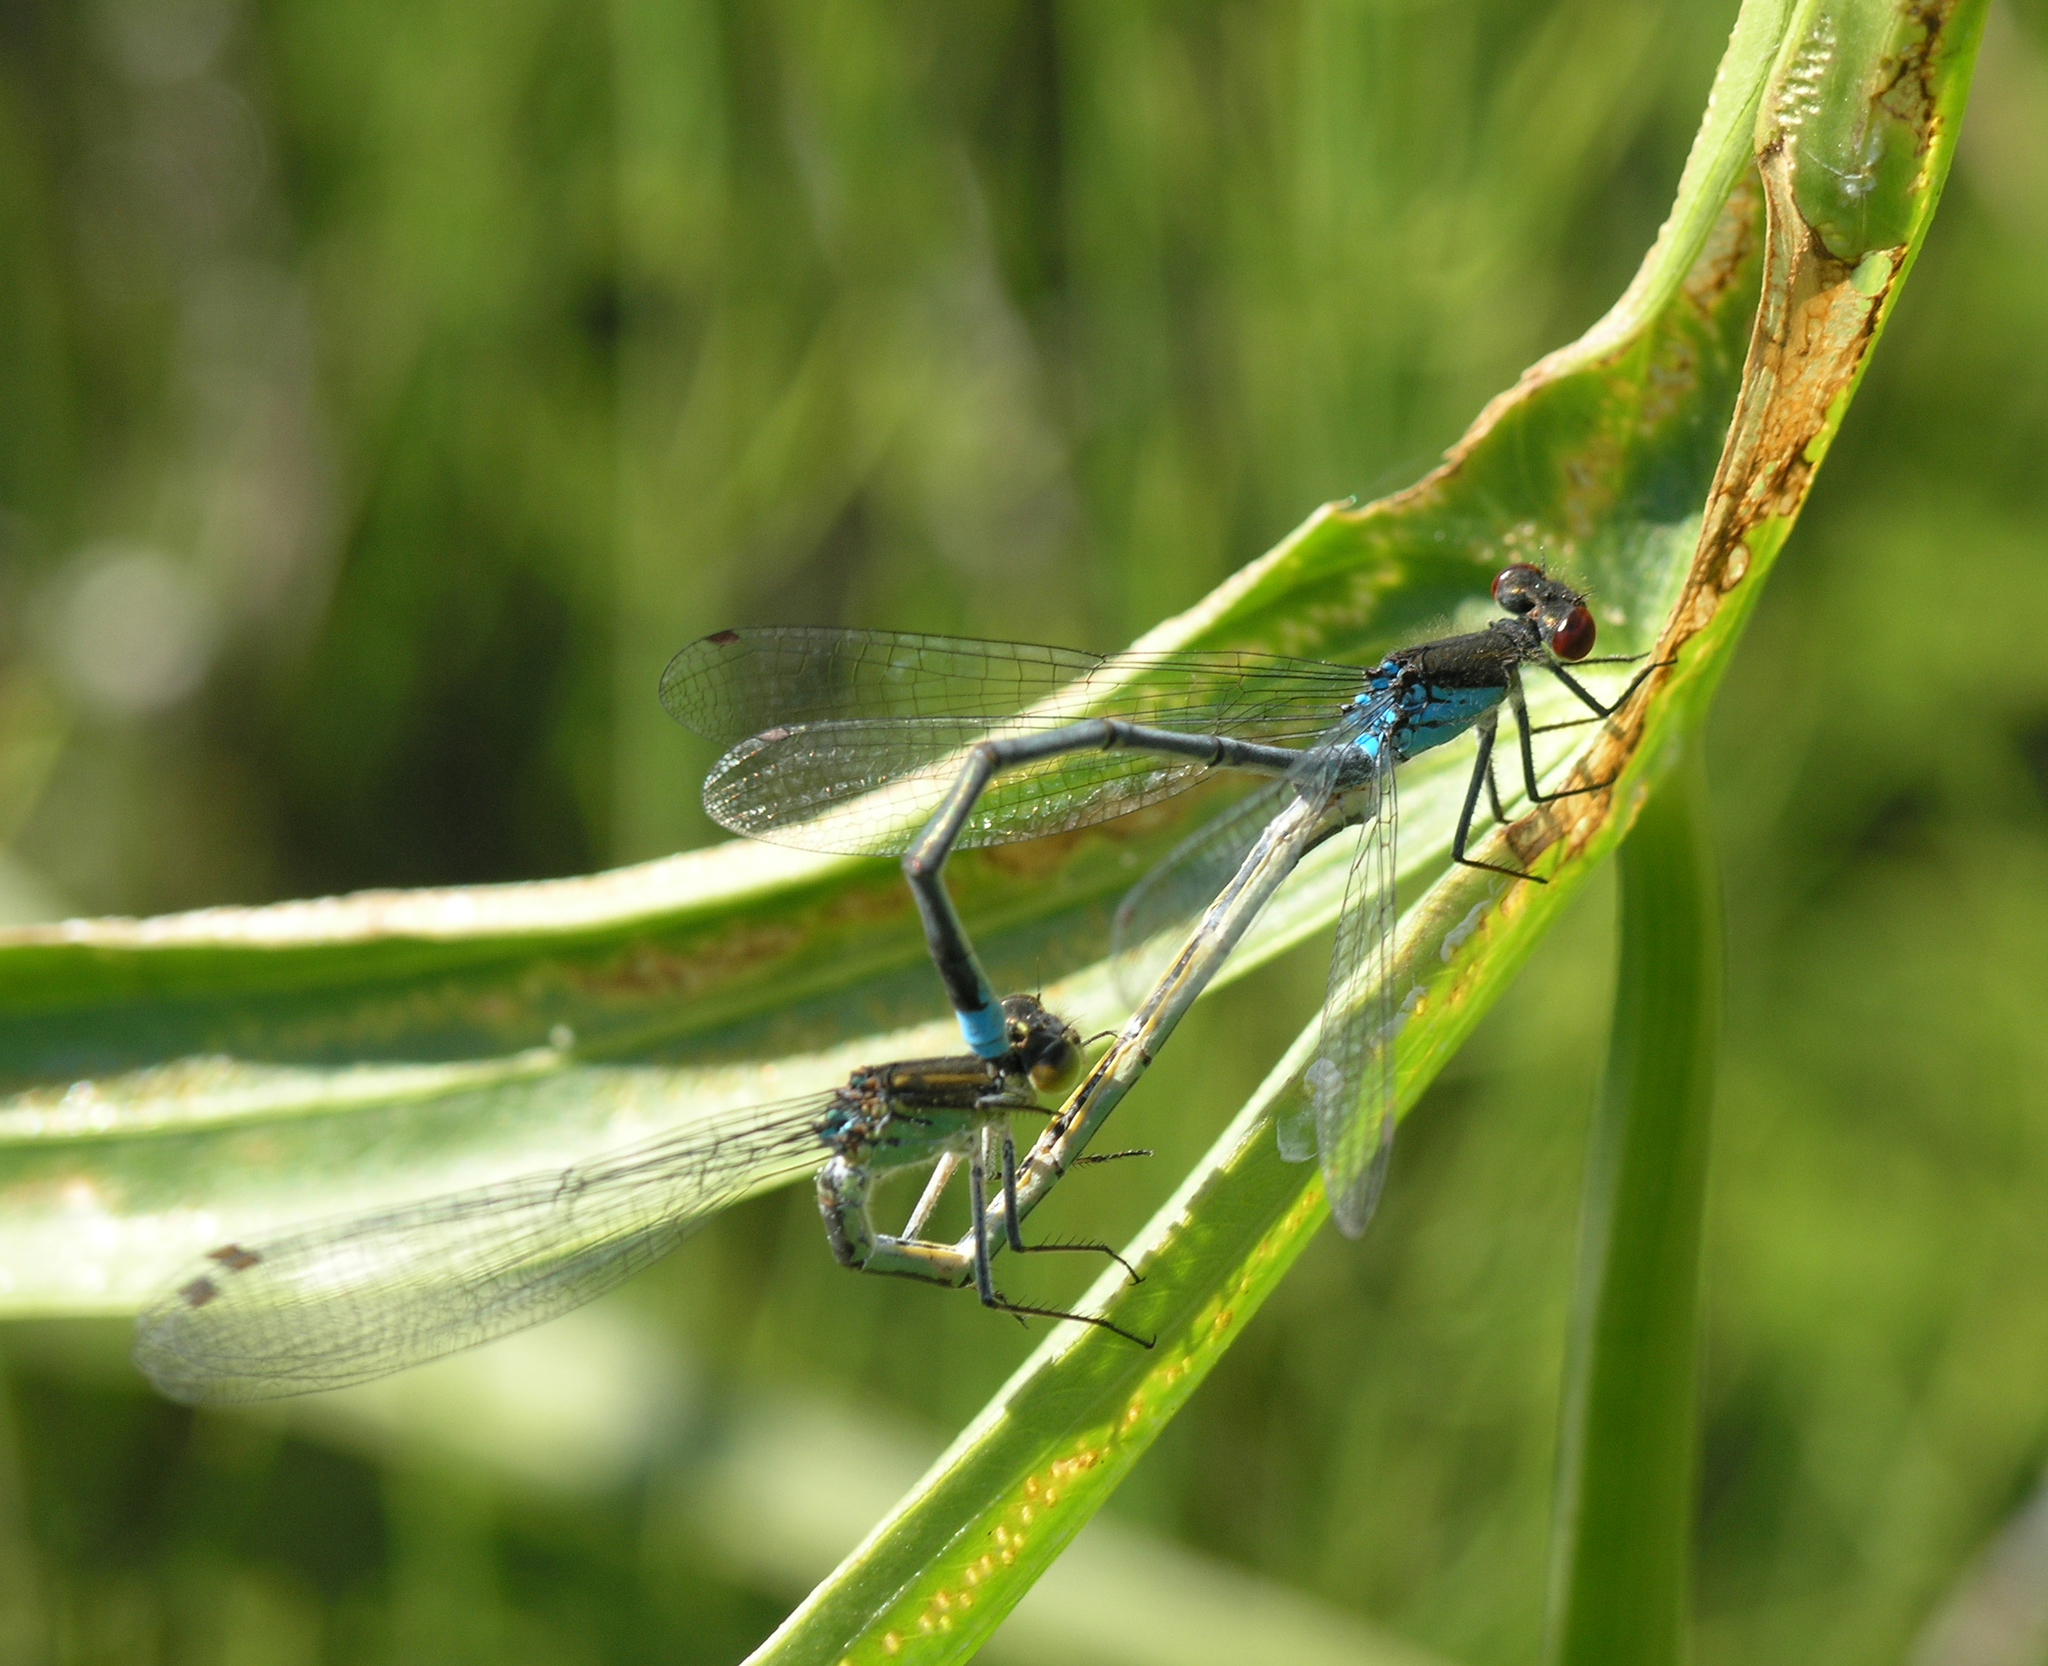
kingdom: Animalia
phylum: Arthropoda
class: Insecta
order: Odonata
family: Coenagrionidae
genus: Erythromma
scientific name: Erythromma najas
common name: Red-eyed damselfly
